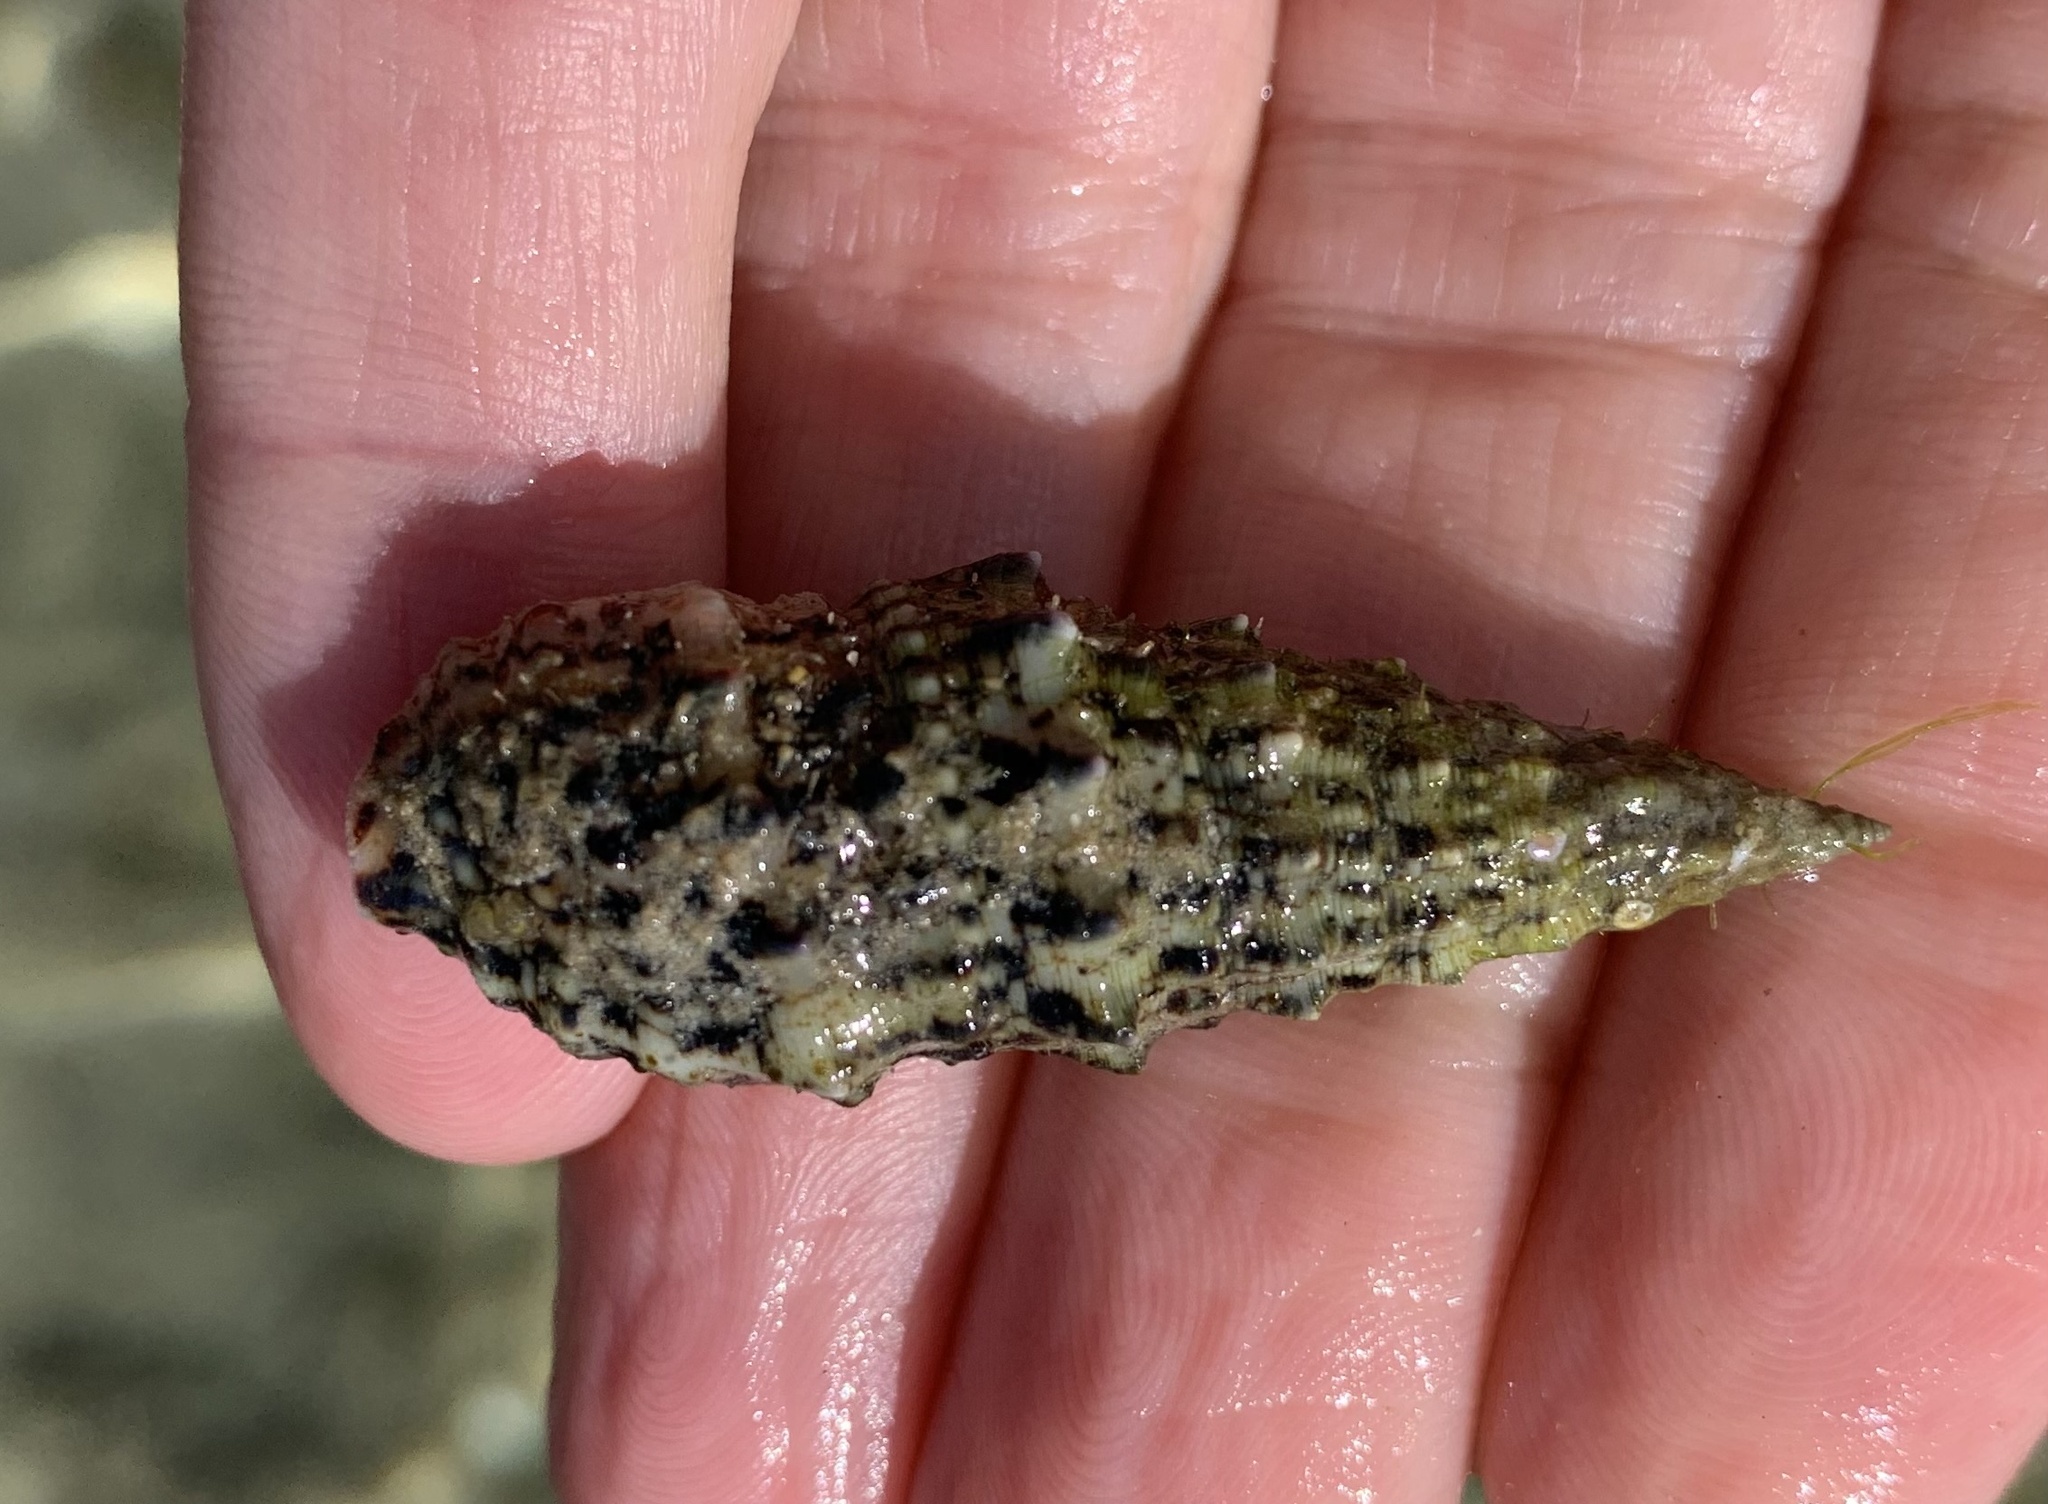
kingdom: Animalia
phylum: Mollusca
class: Gastropoda
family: Cerithiidae
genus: Cerithium
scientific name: Cerithium vulgatum
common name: European cerith
